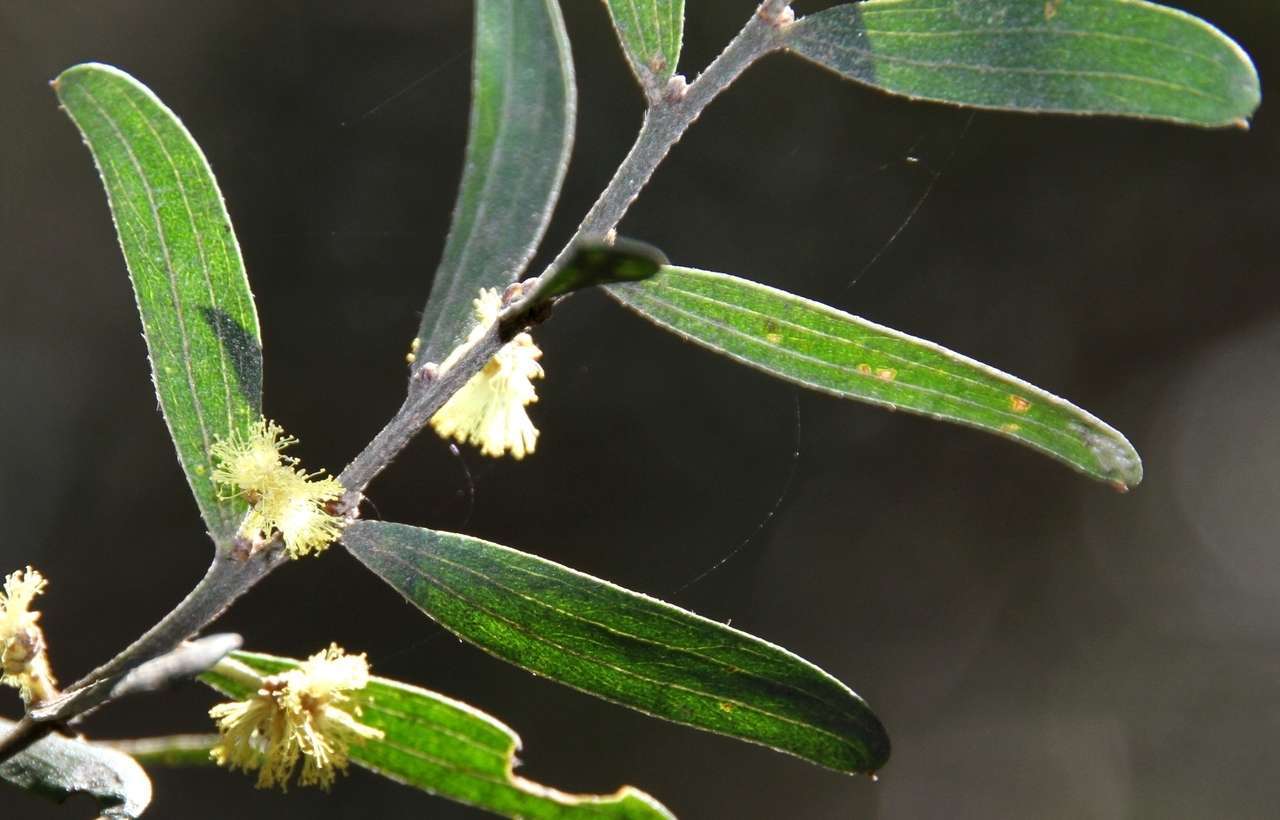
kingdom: Plantae
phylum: Tracheophyta
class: Magnoliopsida
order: Fabales
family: Fabaceae
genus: Acacia
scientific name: Acacia rostriformis
